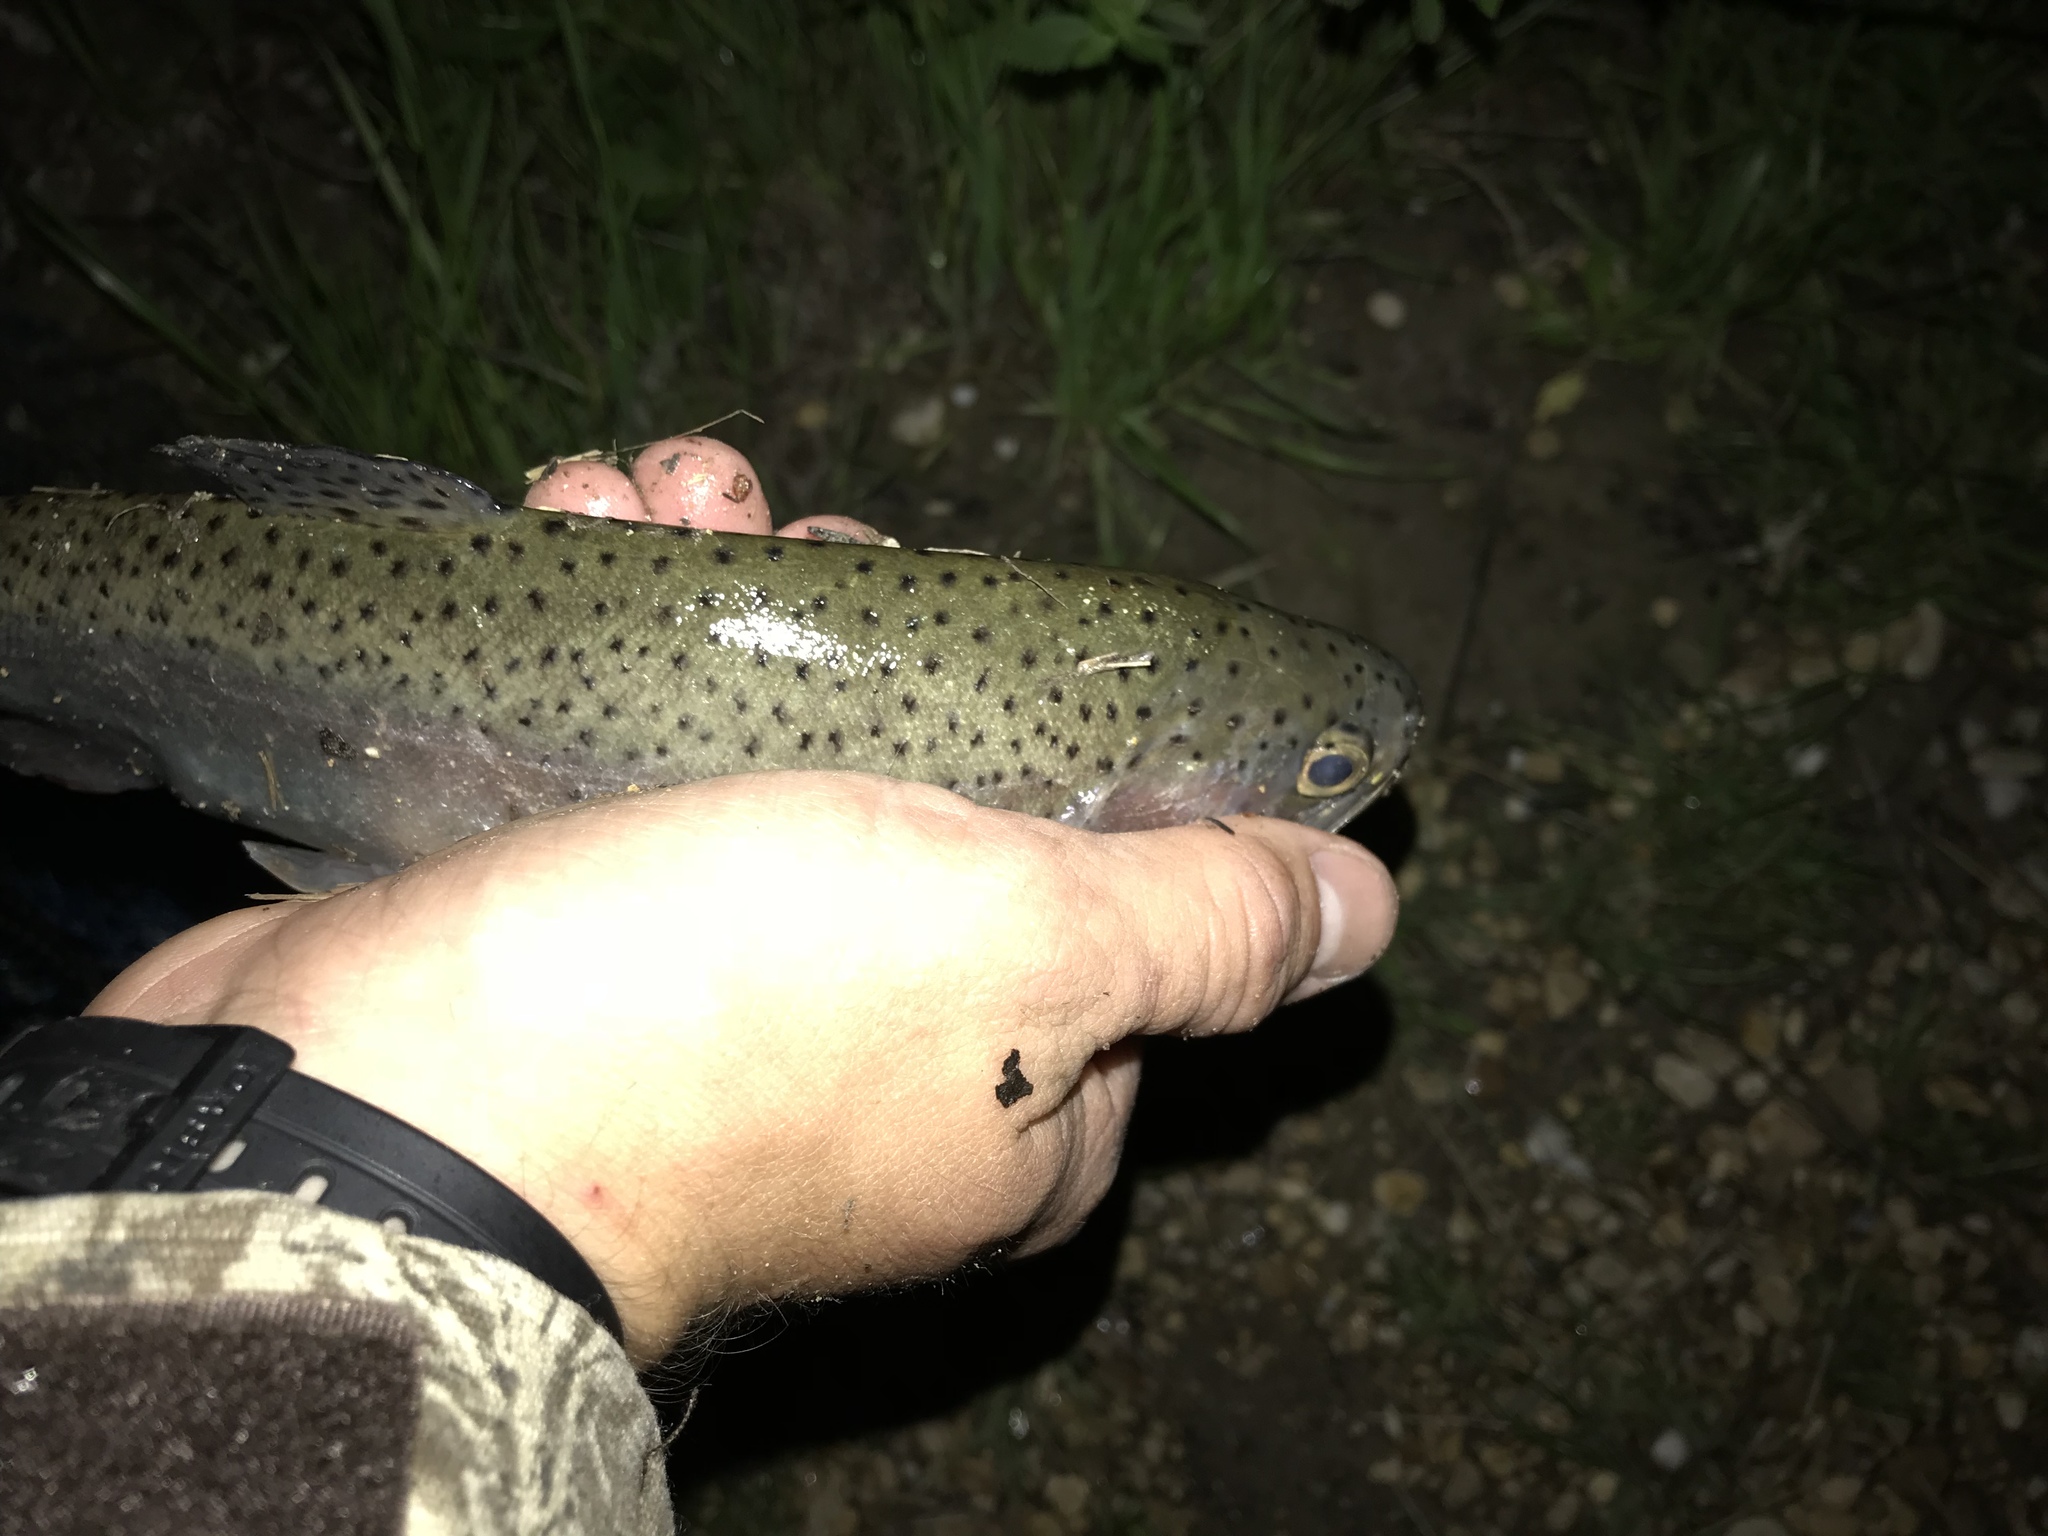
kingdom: Animalia
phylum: Chordata
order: Salmoniformes
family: Salmonidae
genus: Oncorhynchus
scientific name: Oncorhynchus mykiss
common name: Rainbow trout
